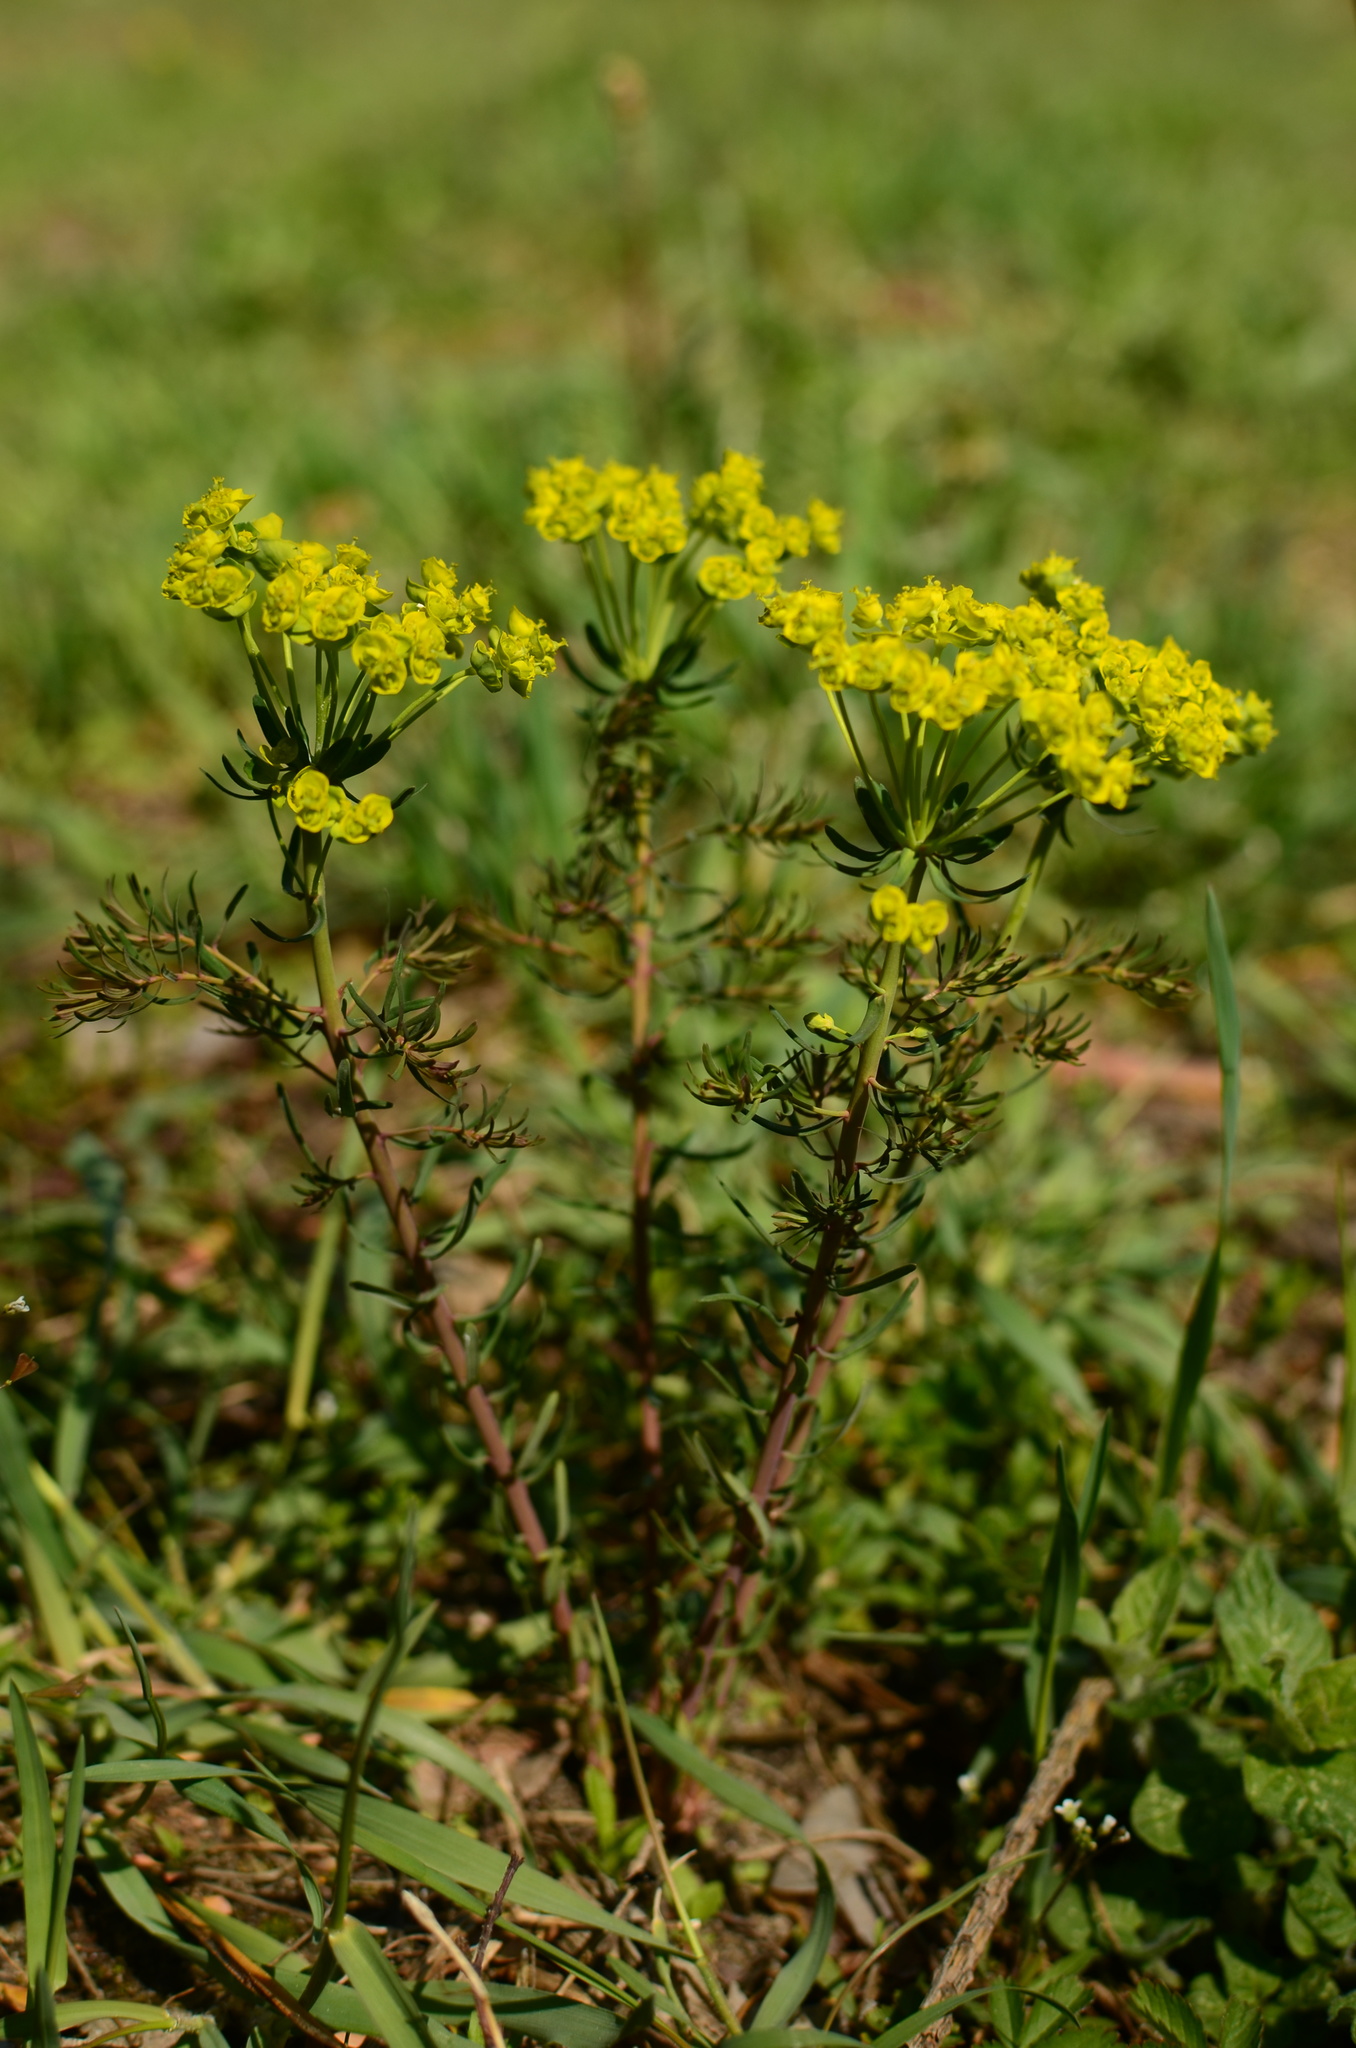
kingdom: Plantae
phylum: Tracheophyta
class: Magnoliopsida
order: Malpighiales
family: Euphorbiaceae
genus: Euphorbia
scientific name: Euphorbia cyparissias
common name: Cypress spurge
